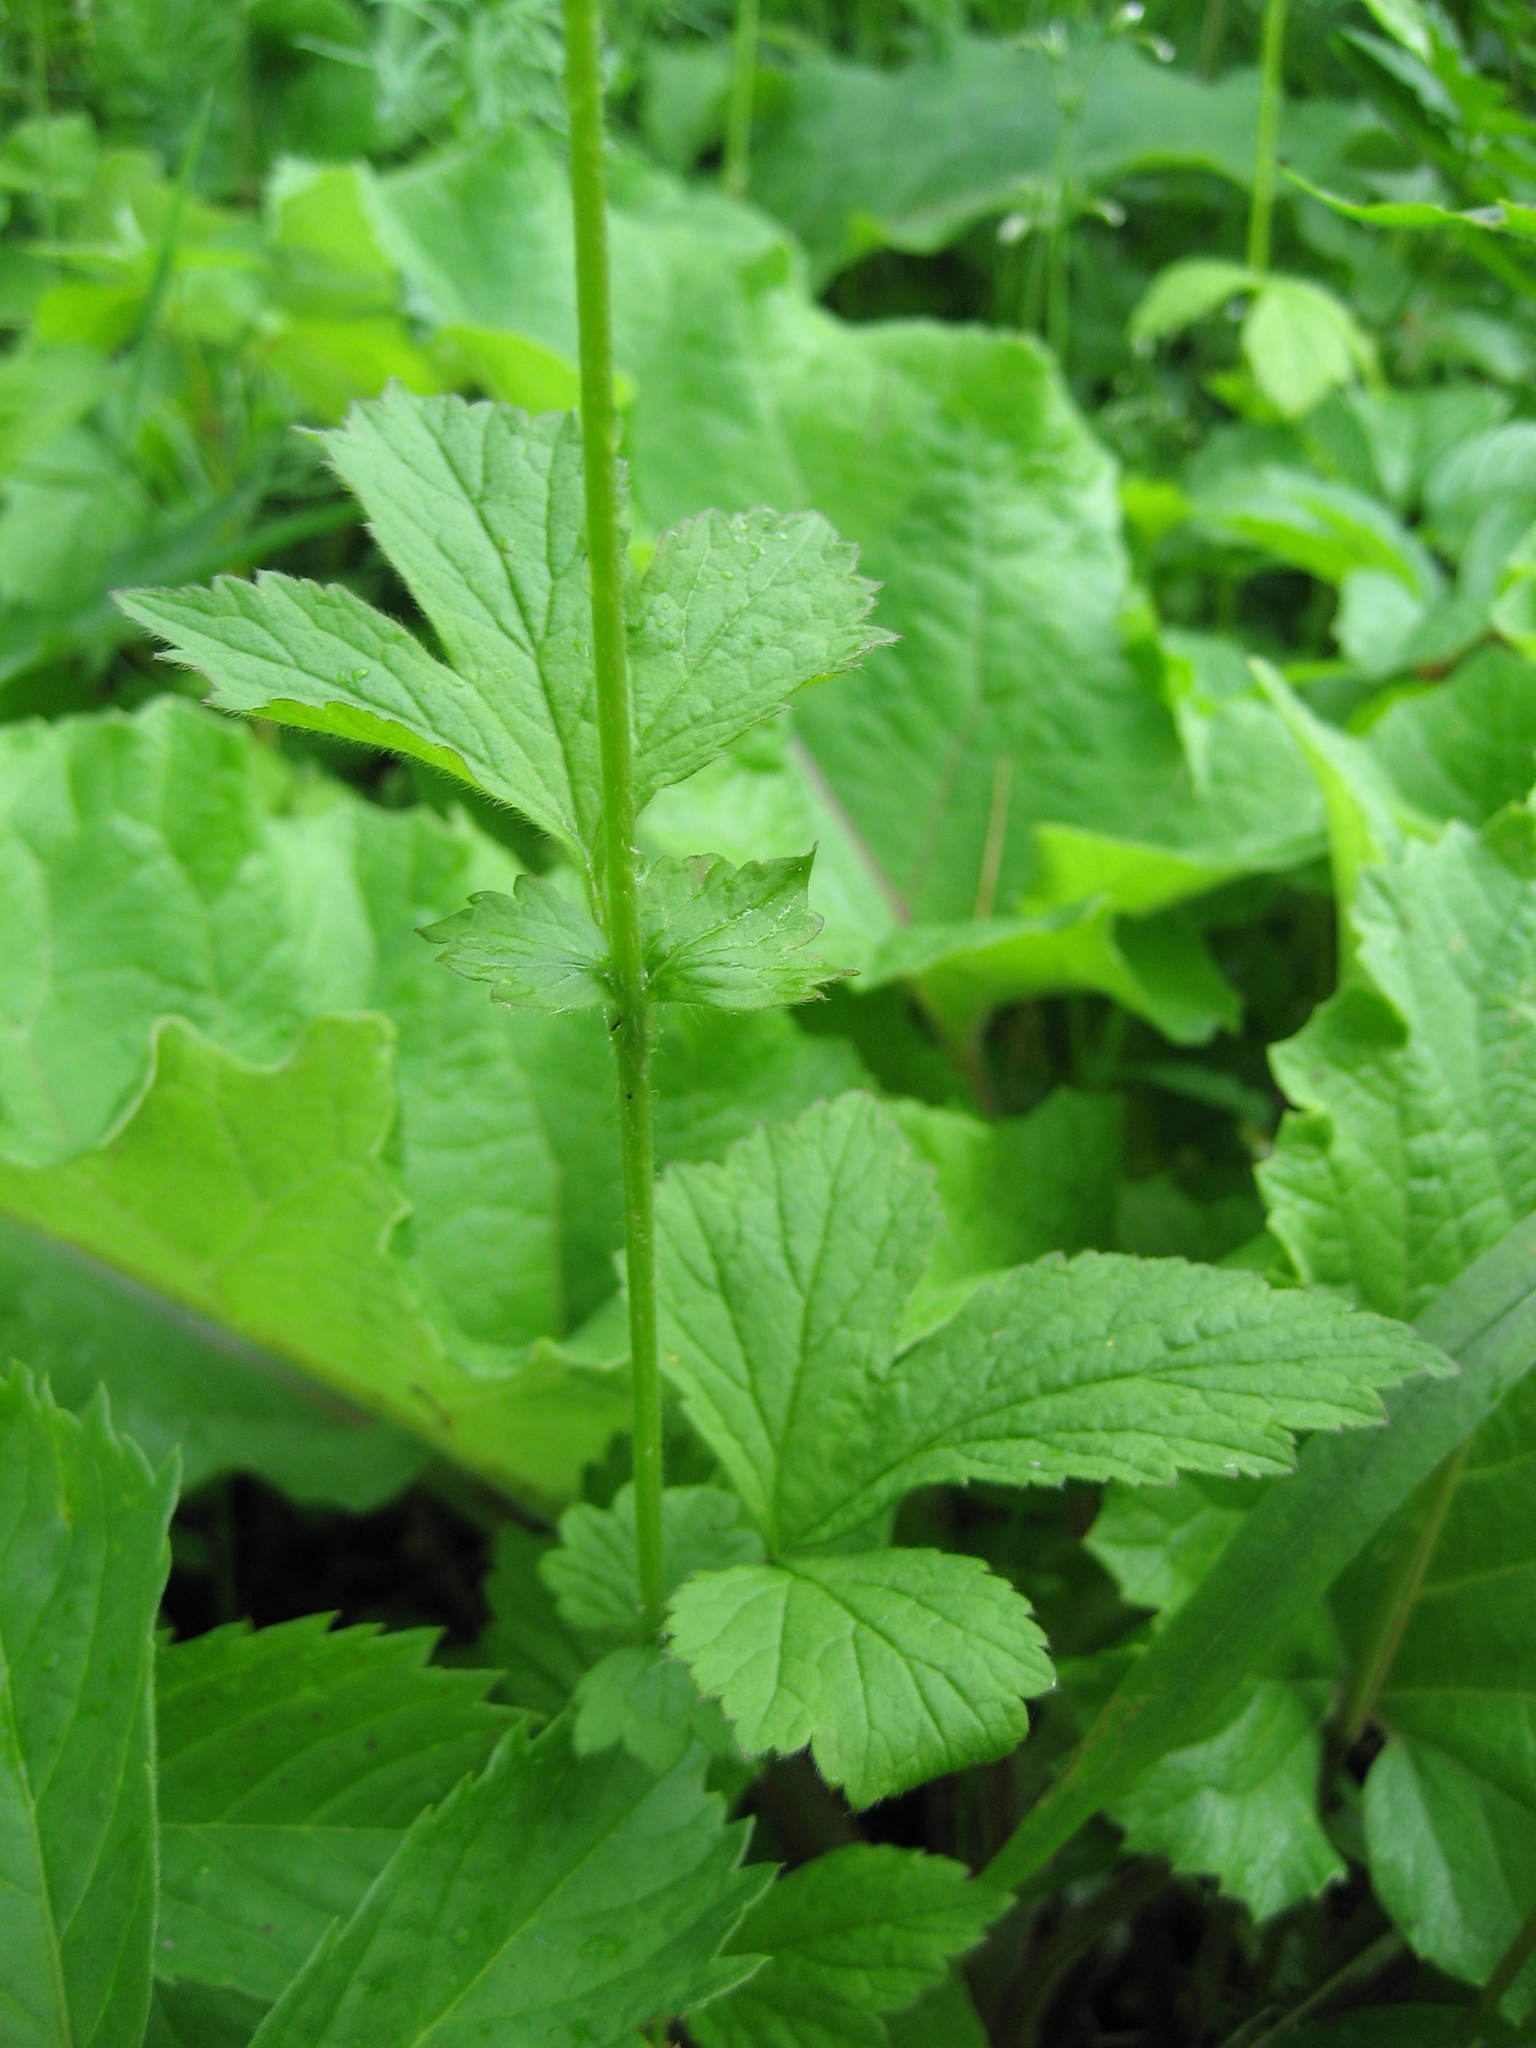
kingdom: Plantae
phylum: Tracheophyta
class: Magnoliopsida
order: Rosales
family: Rosaceae
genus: Geum
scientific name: Geum urbanum
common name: Wood avens
